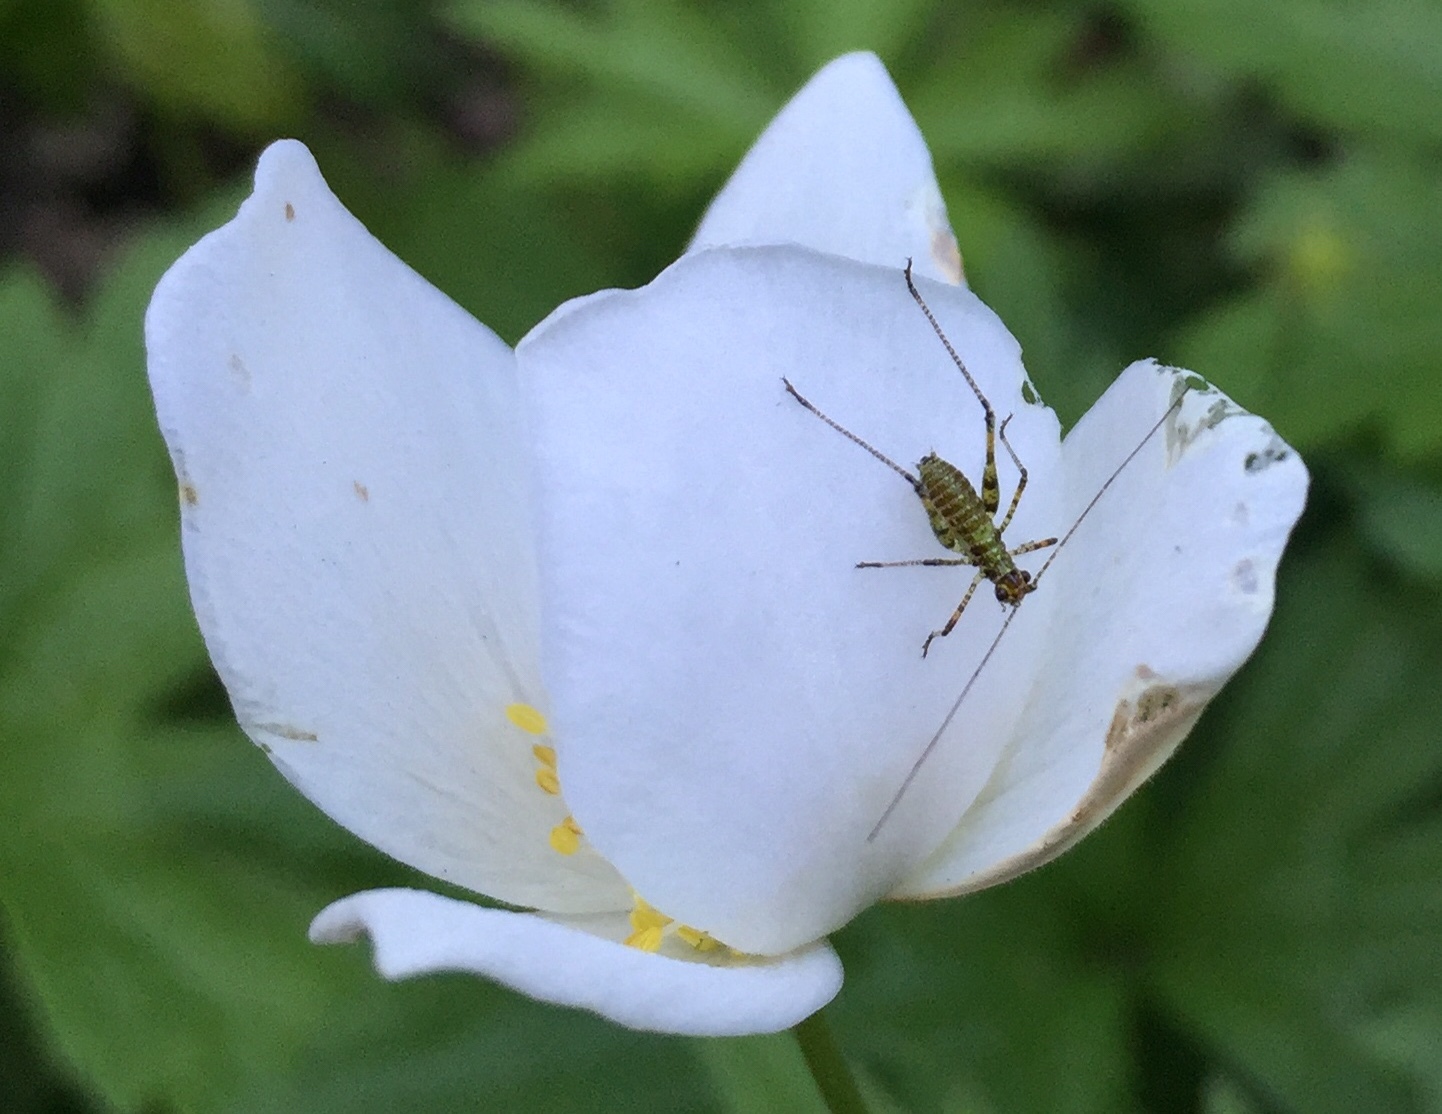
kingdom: Animalia
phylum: Arthropoda
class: Insecta
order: Orthoptera
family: Tettigoniidae
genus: Phaneroptera
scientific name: Phaneroptera nana
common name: Southern sickle bush-cricket
